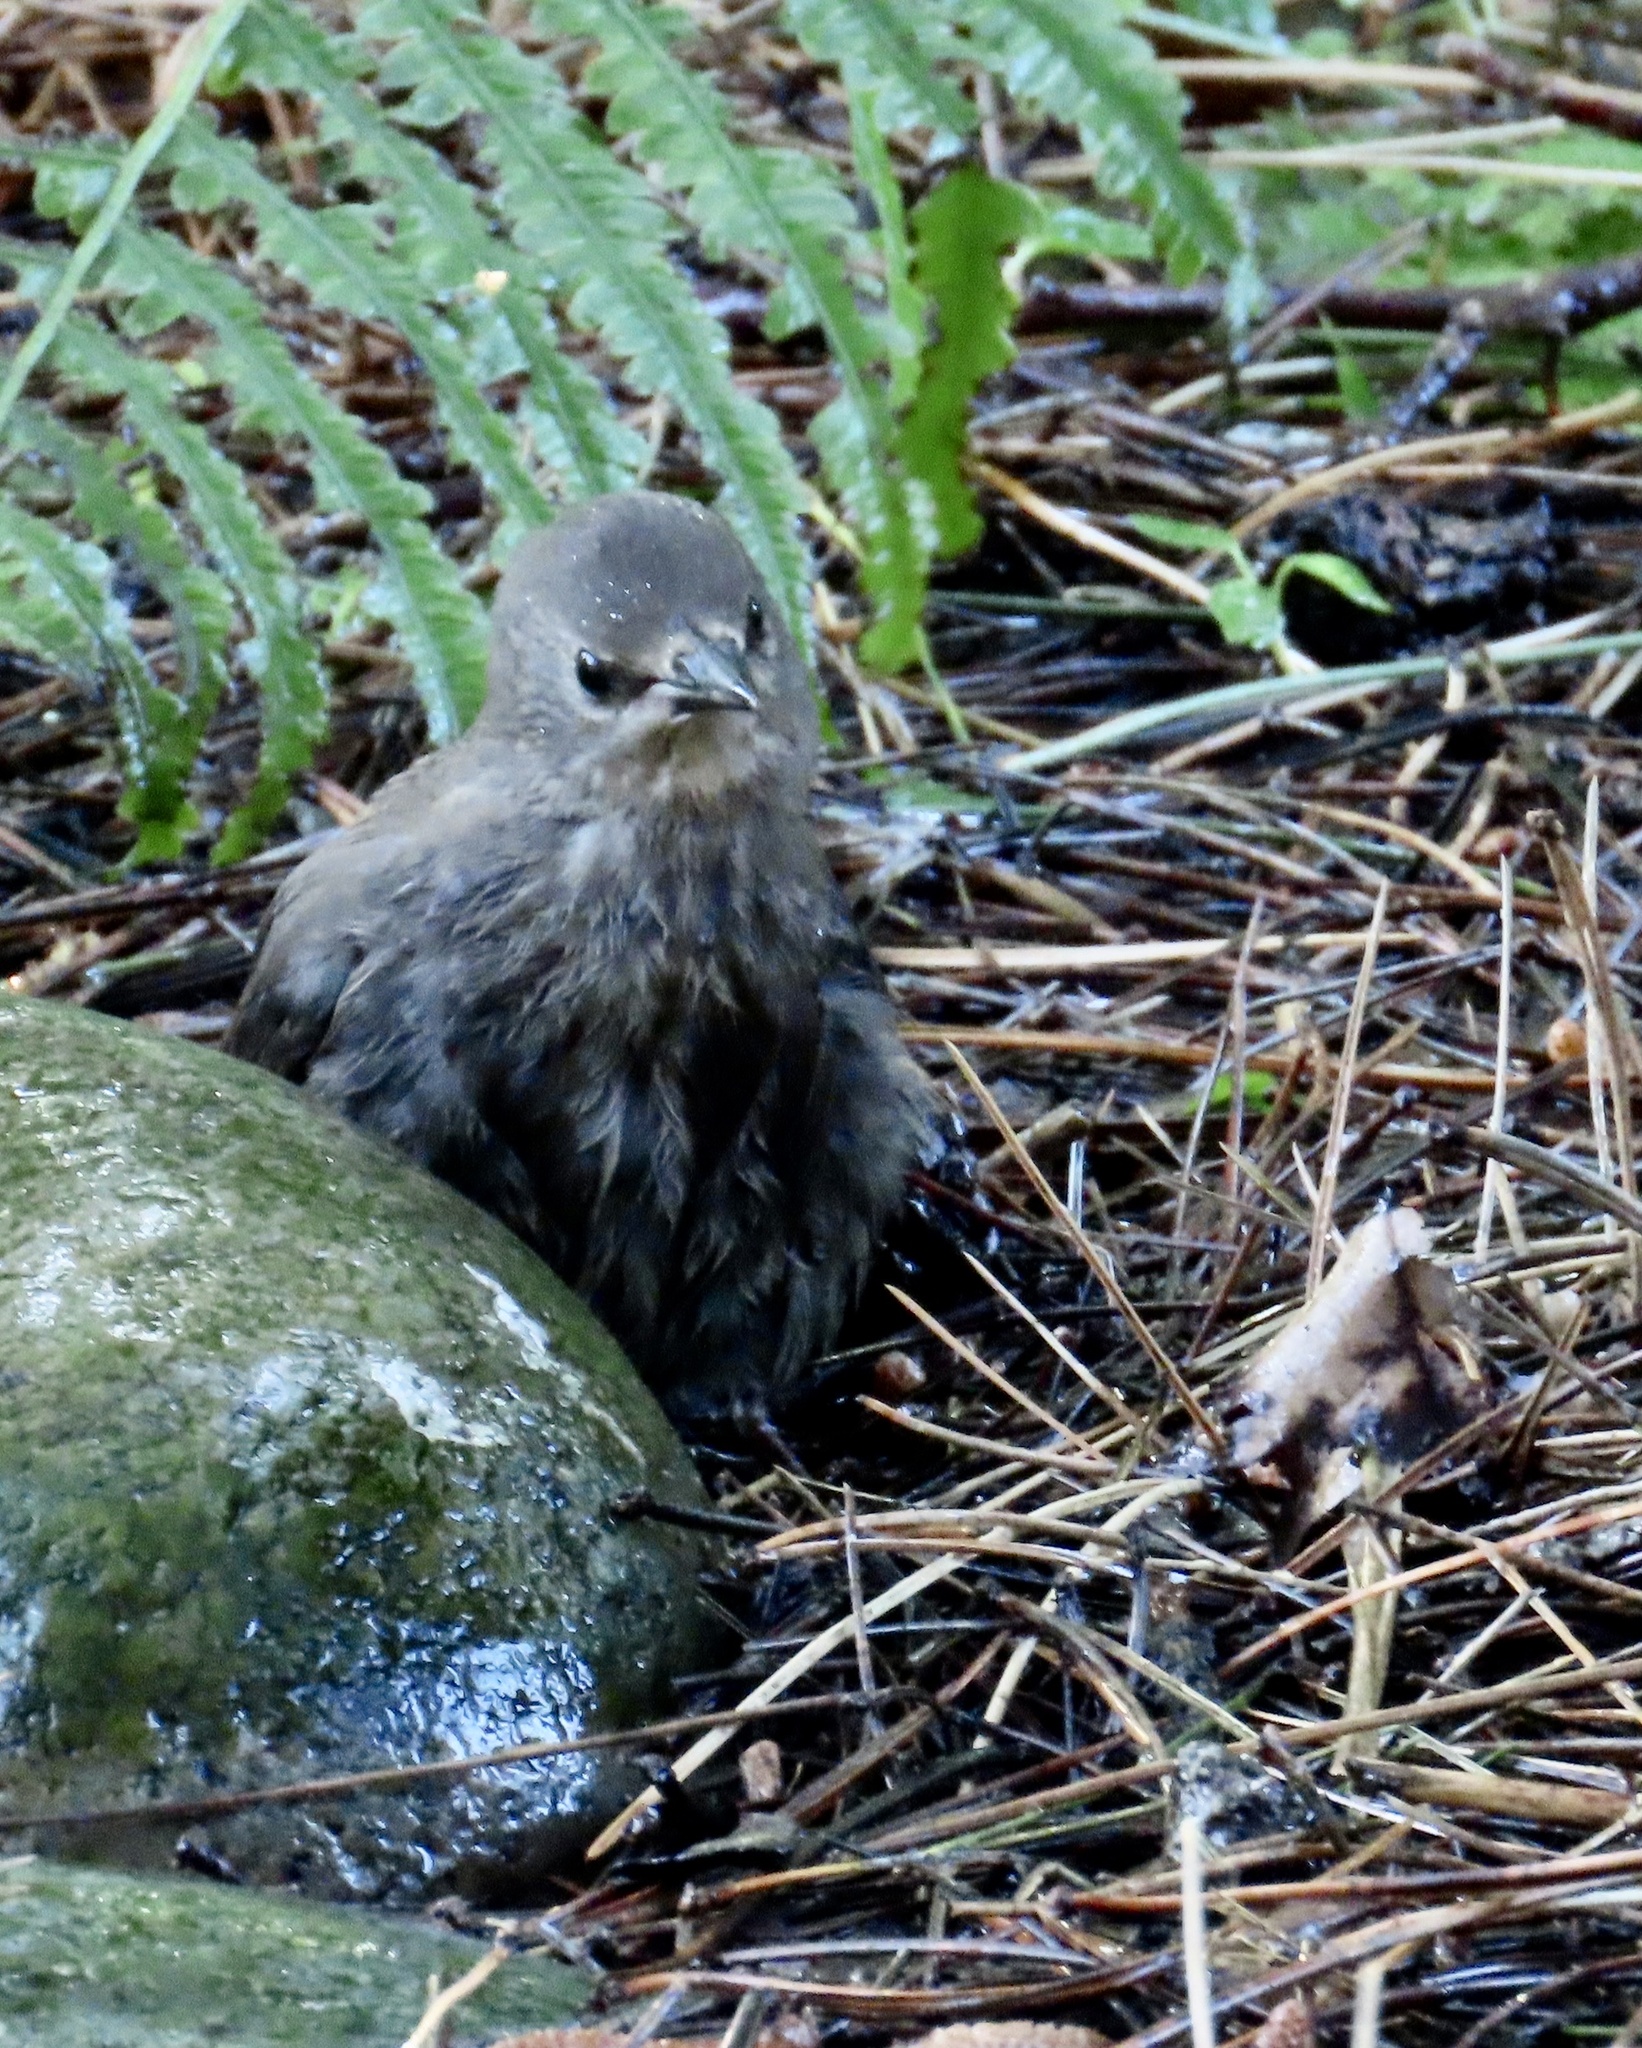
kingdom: Animalia
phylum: Chordata
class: Aves
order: Passeriformes
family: Sturnidae
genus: Sturnus
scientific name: Sturnus vulgaris
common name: Common starling
